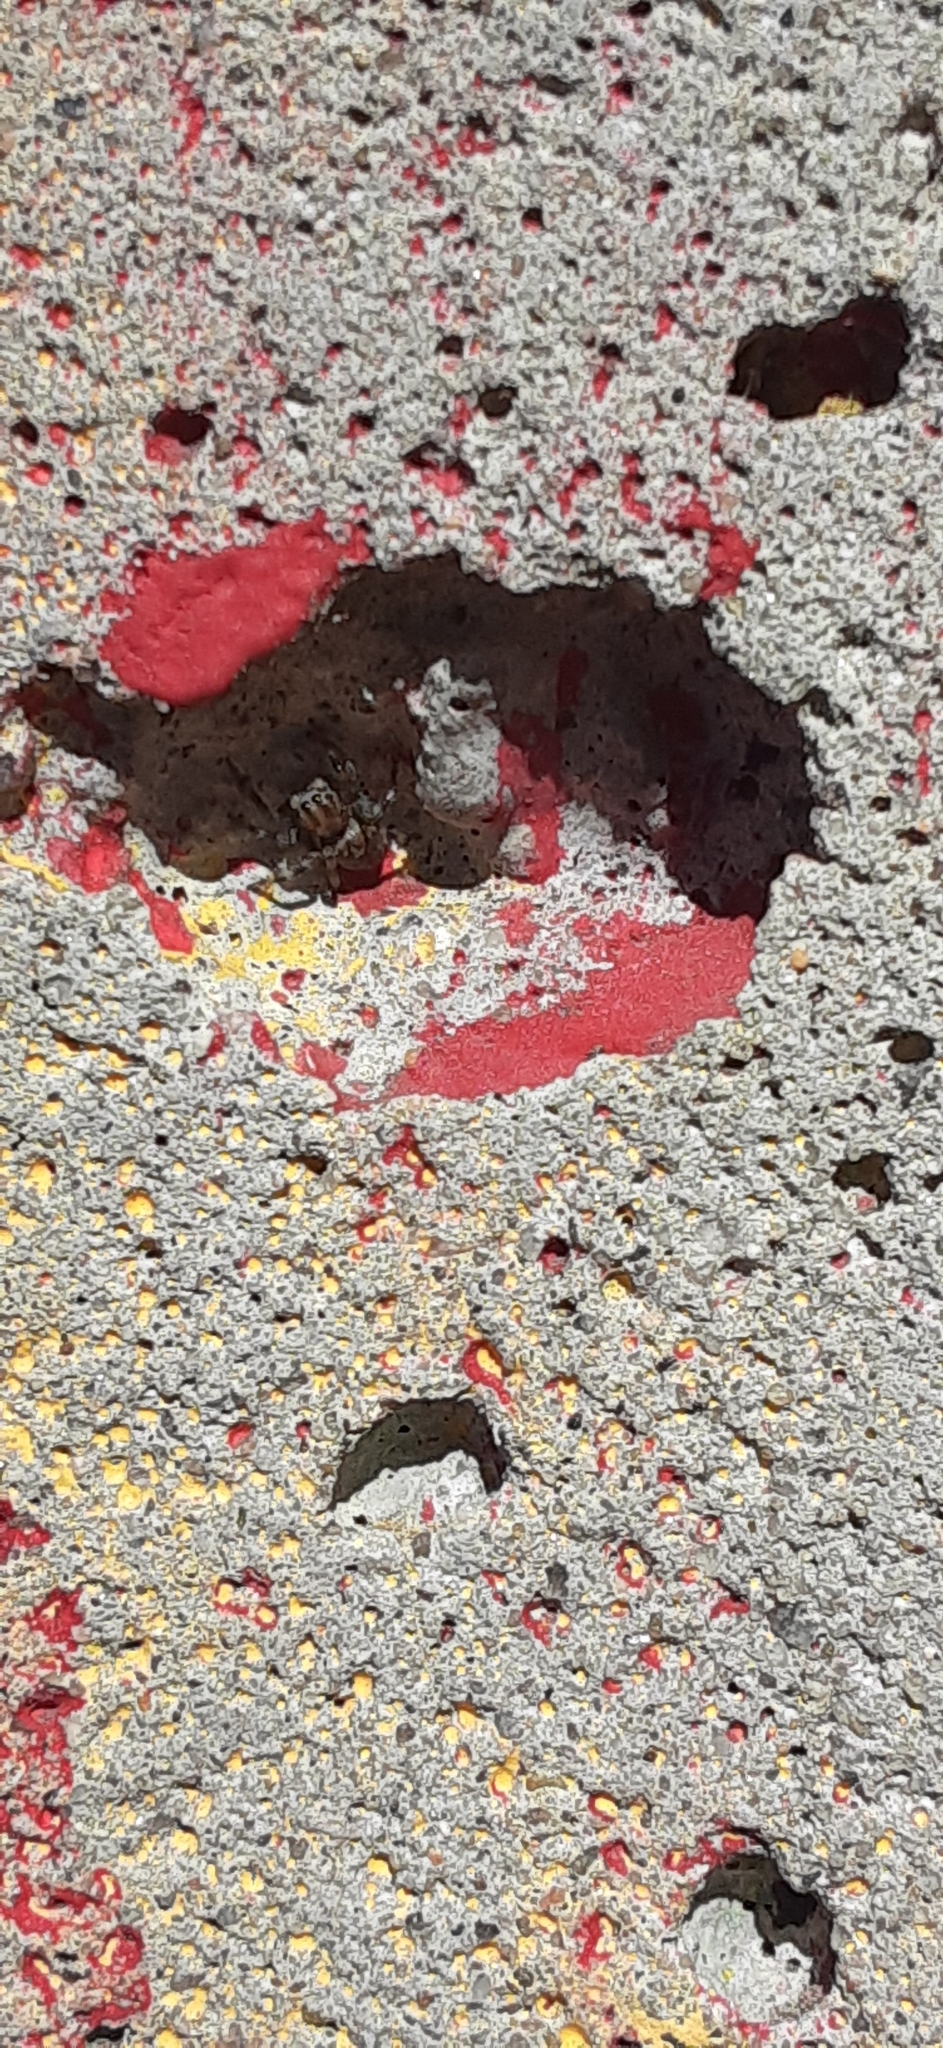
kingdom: Animalia
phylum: Arthropoda
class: Arachnida
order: Araneae
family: Salticidae
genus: Hakka
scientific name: Hakka himeshimensis
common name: Jumping spider
